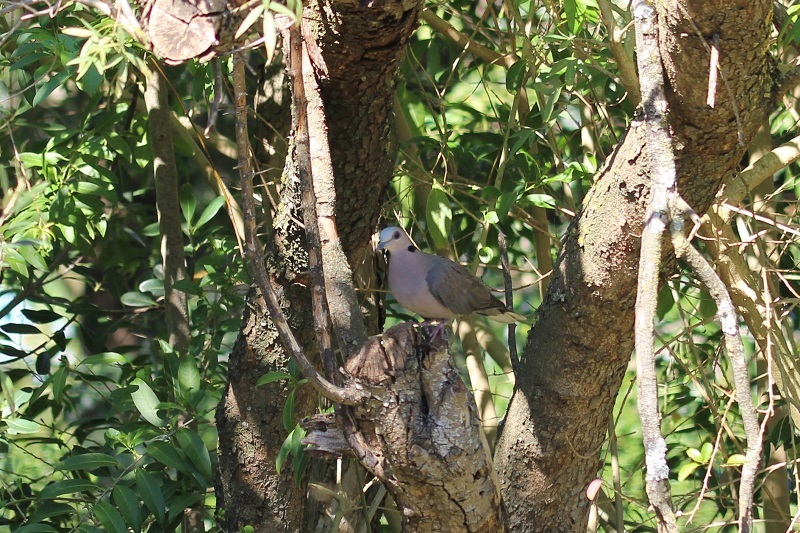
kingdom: Animalia
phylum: Chordata
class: Aves
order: Columbiformes
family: Columbidae
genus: Streptopelia
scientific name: Streptopelia semitorquata
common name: Red-eyed dove
